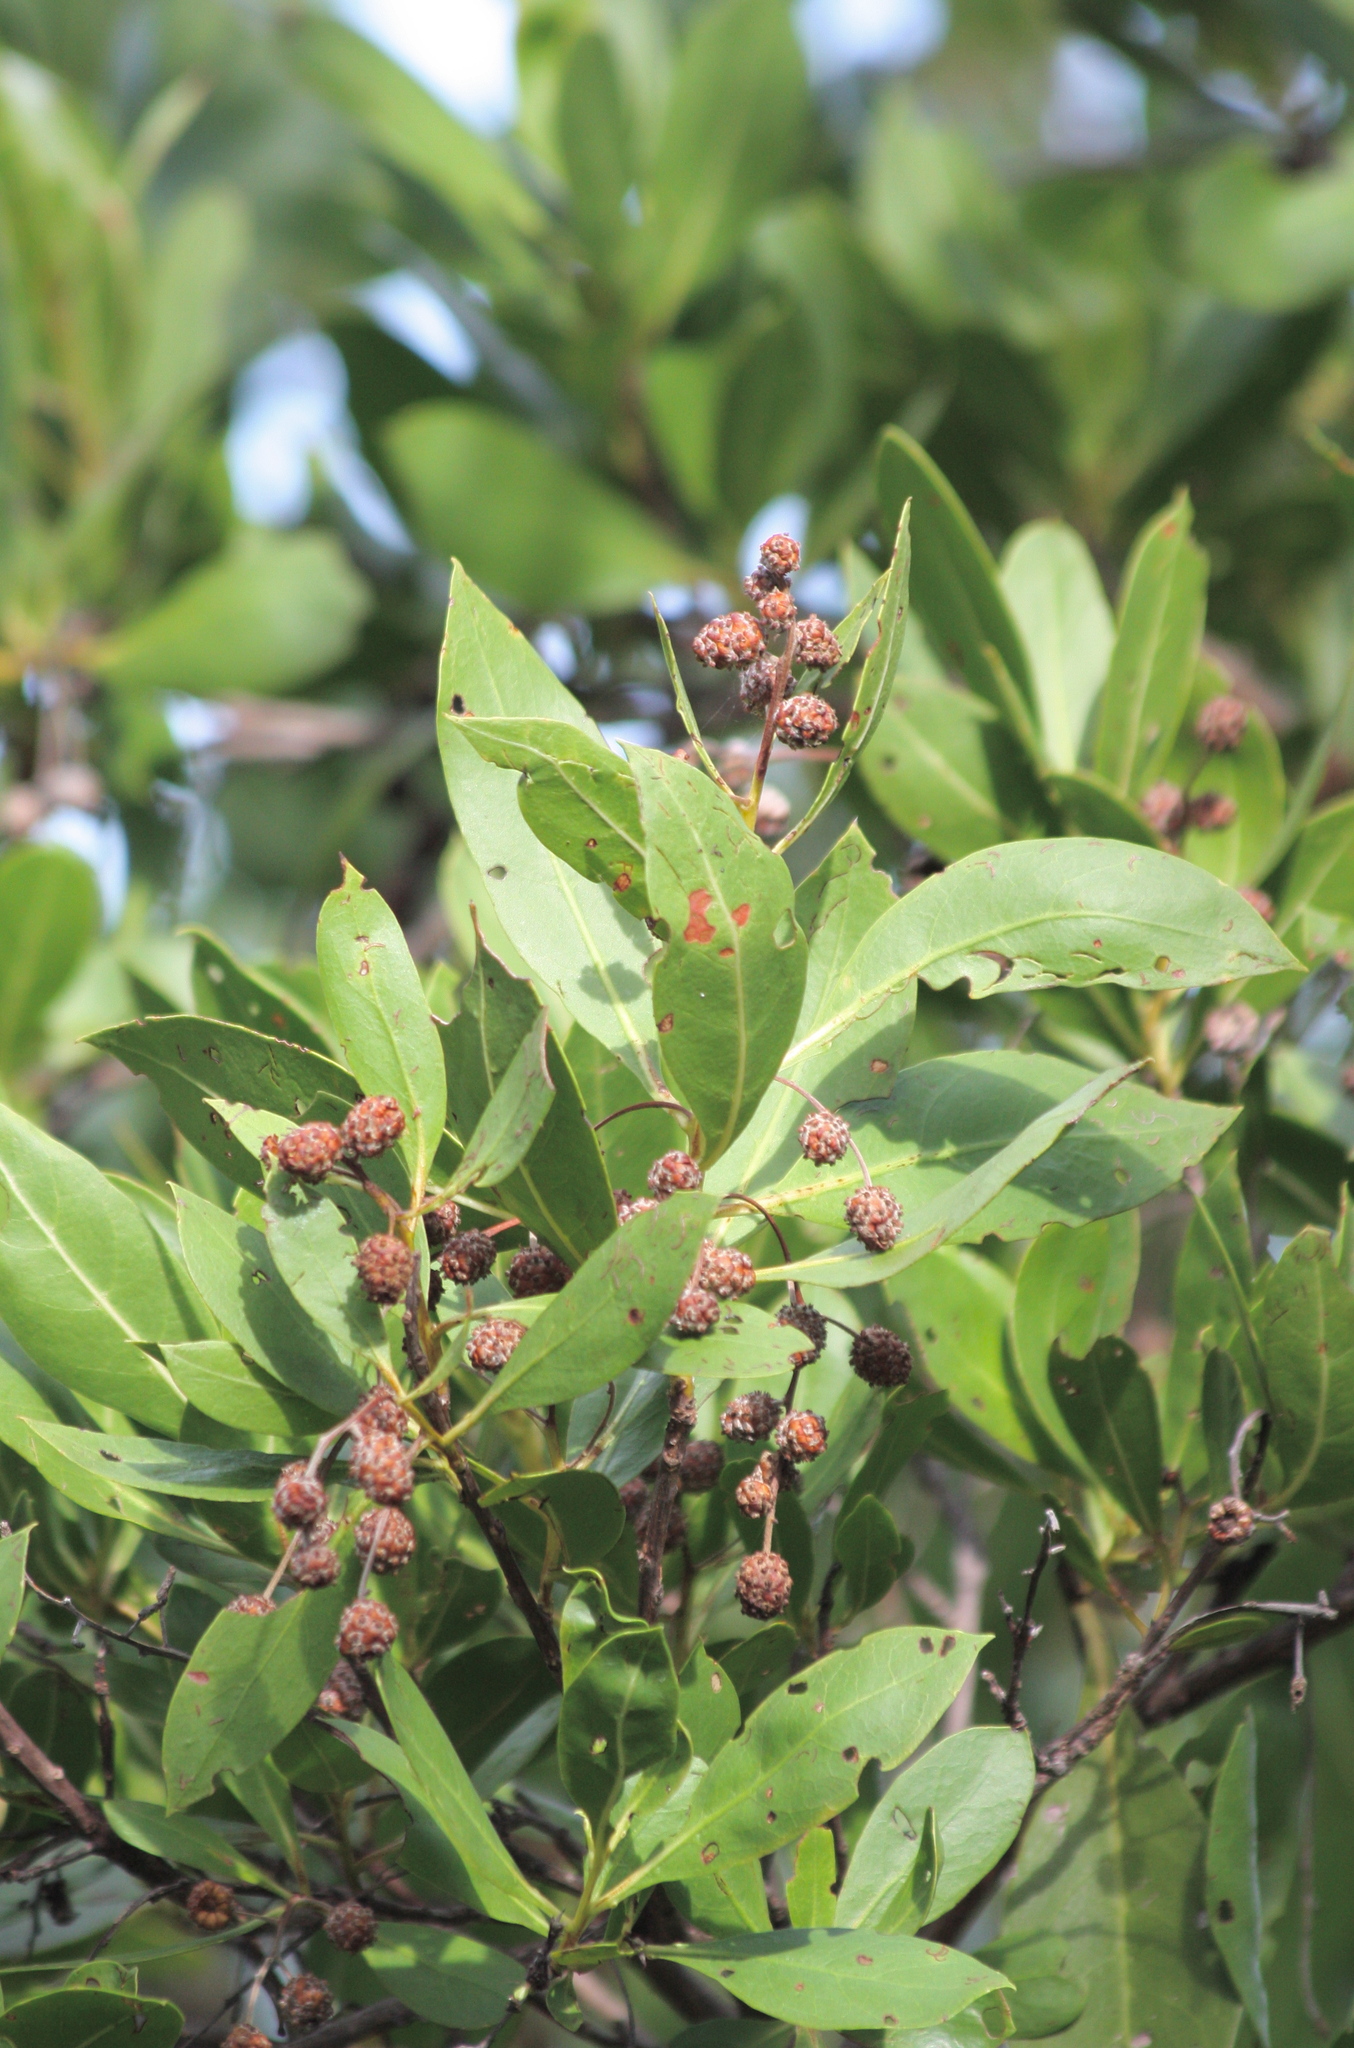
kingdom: Plantae
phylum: Tracheophyta
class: Magnoliopsida
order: Myrtales
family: Combretaceae
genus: Conocarpus
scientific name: Conocarpus erectus
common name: Button mangrove
